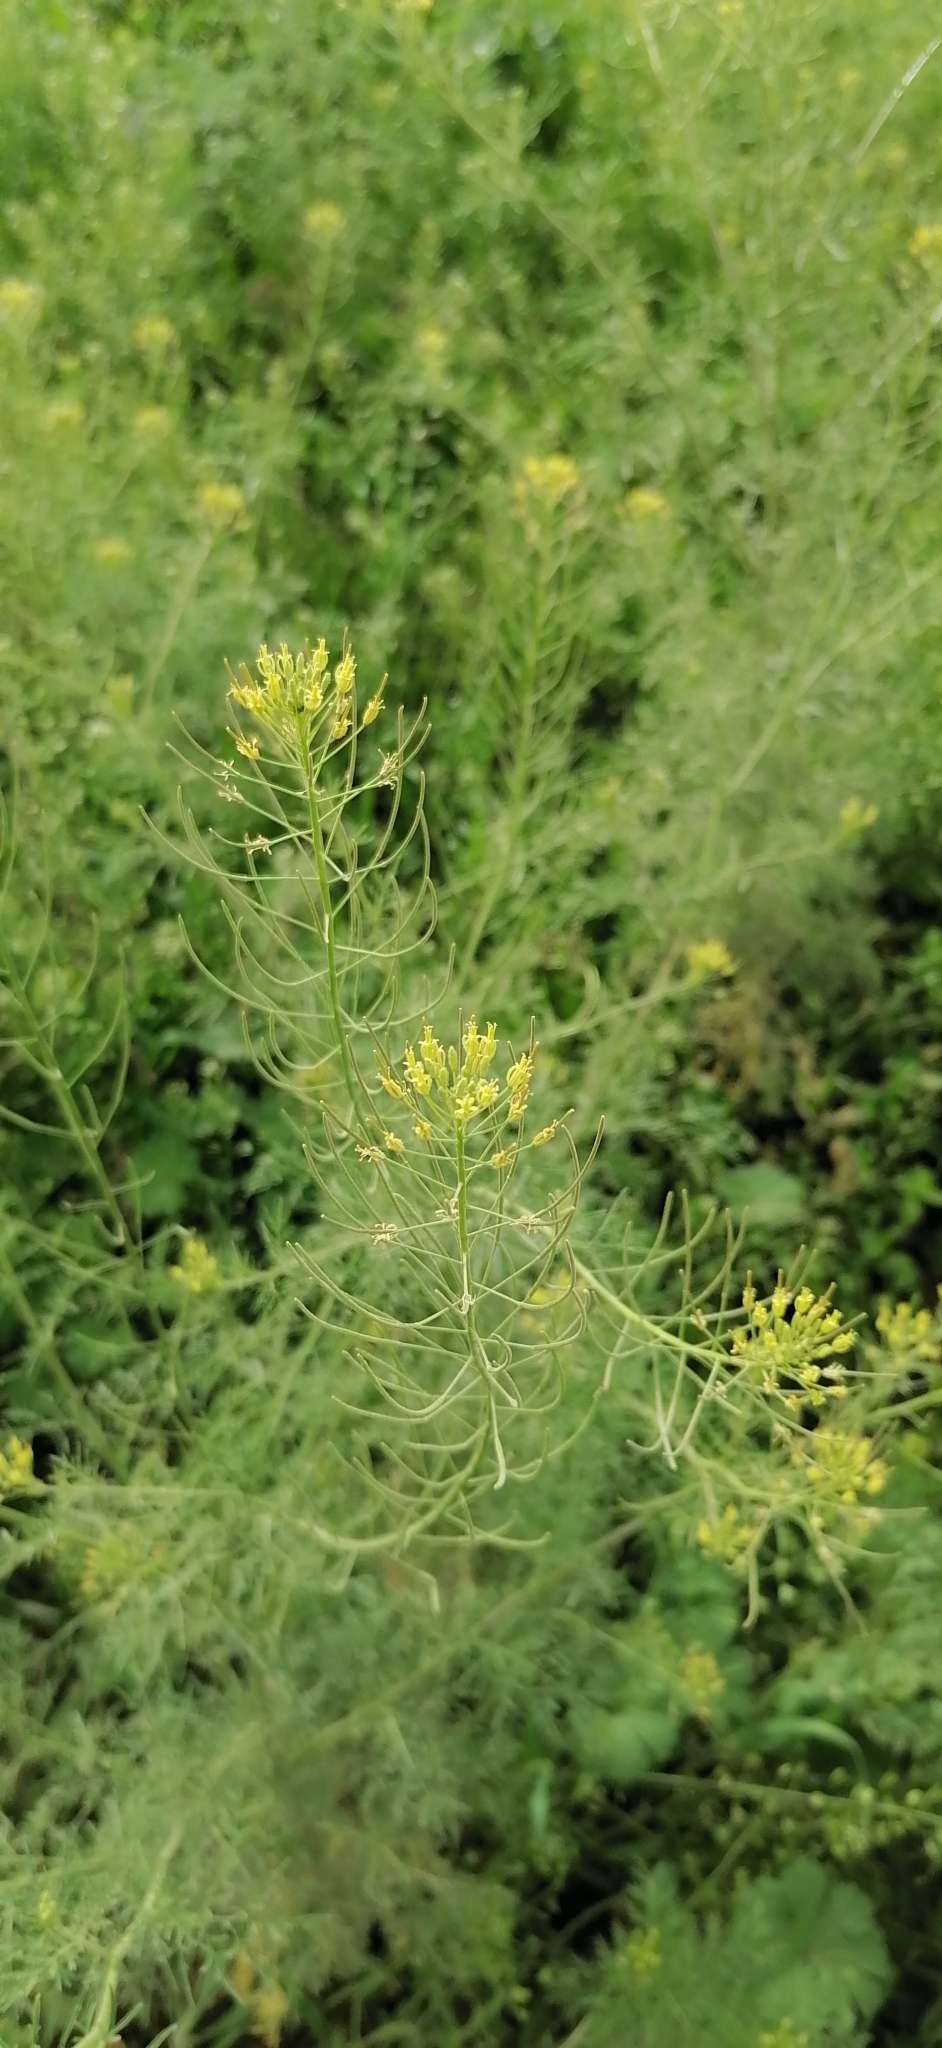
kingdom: Plantae
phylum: Tracheophyta
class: Magnoliopsida
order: Brassicales
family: Brassicaceae
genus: Descurainia
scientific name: Descurainia sophia
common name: Flixweed
